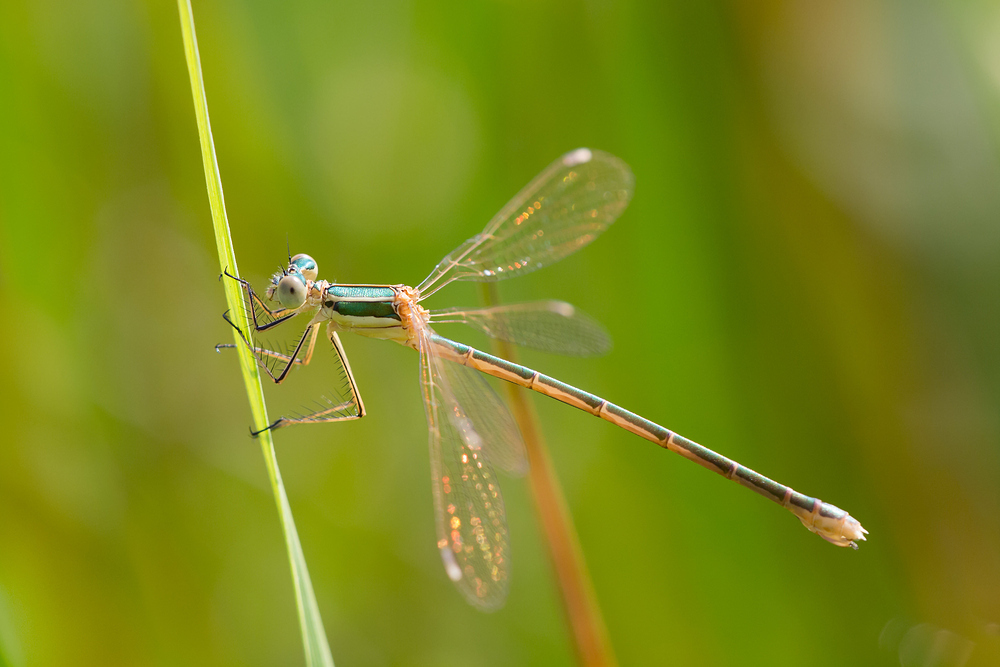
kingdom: Animalia
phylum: Arthropoda
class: Insecta
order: Odonata
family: Lestidae
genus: Lestes
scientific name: Lestes barbarus
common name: Migrant spreadwing
